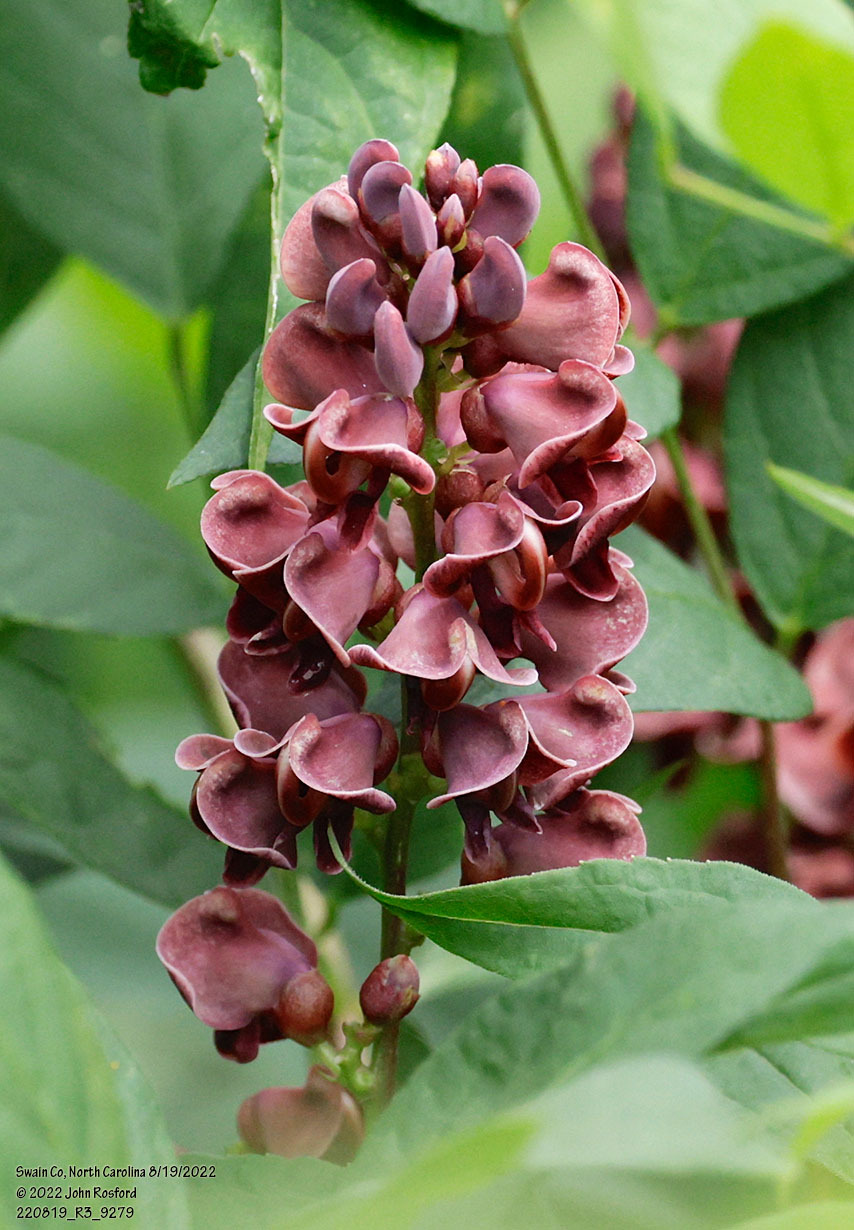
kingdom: Plantae
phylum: Tracheophyta
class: Magnoliopsida
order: Fabales
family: Fabaceae
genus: Apios
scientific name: Apios americana
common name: American potato-bean
